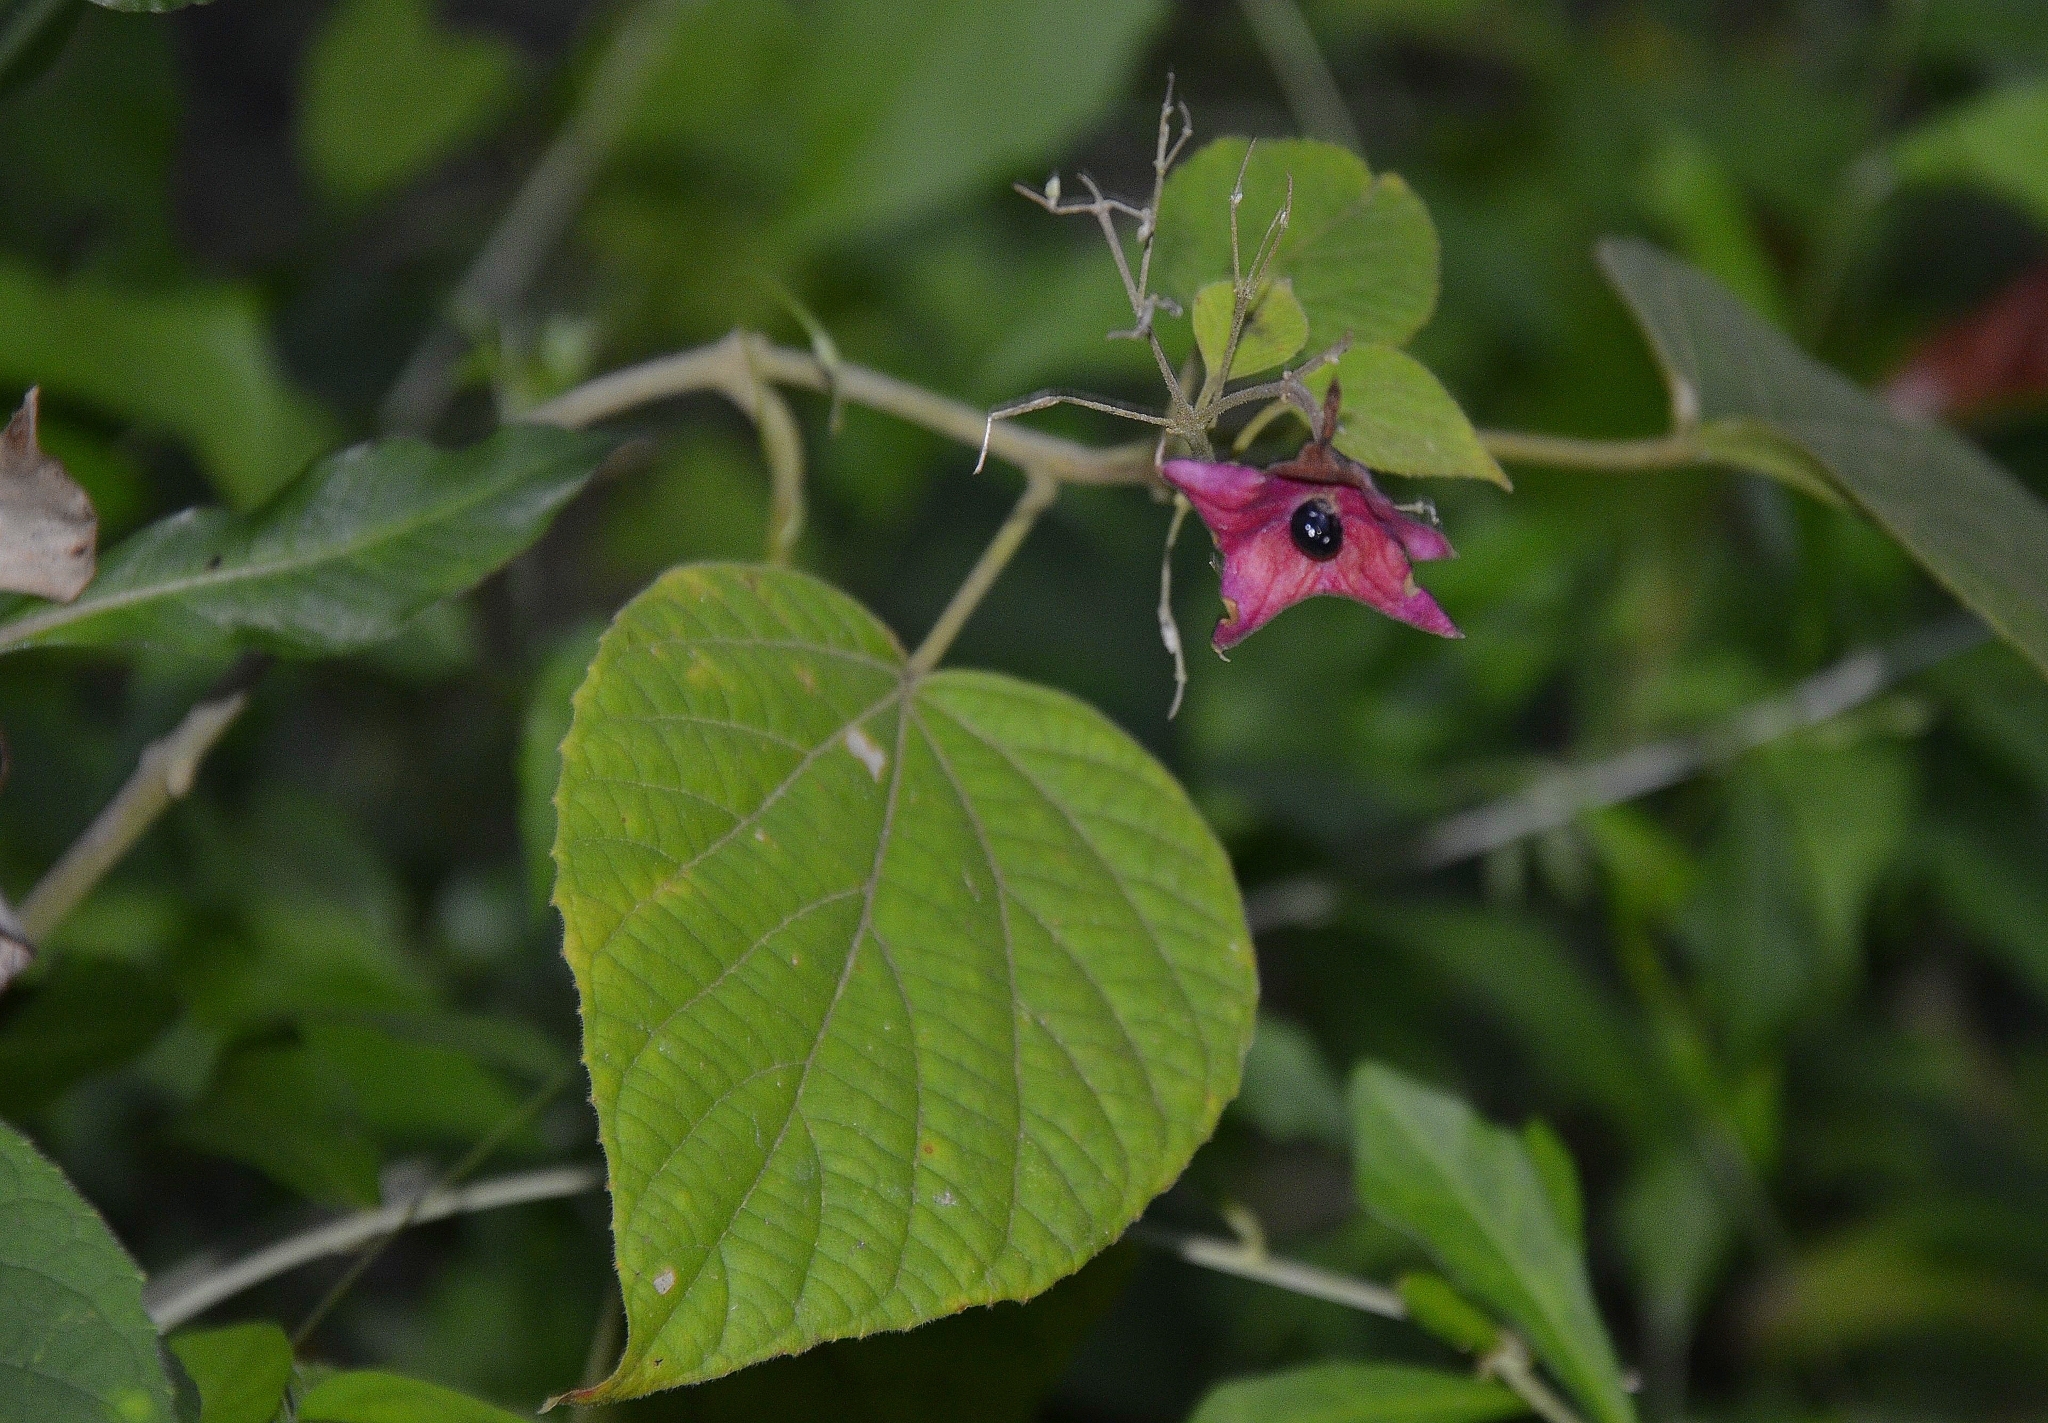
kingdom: Plantae
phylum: Tracheophyta
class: Magnoliopsida
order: Lamiales
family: Lamiaceae
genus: Clerodendrum
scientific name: Clerodendrum infortunatum
